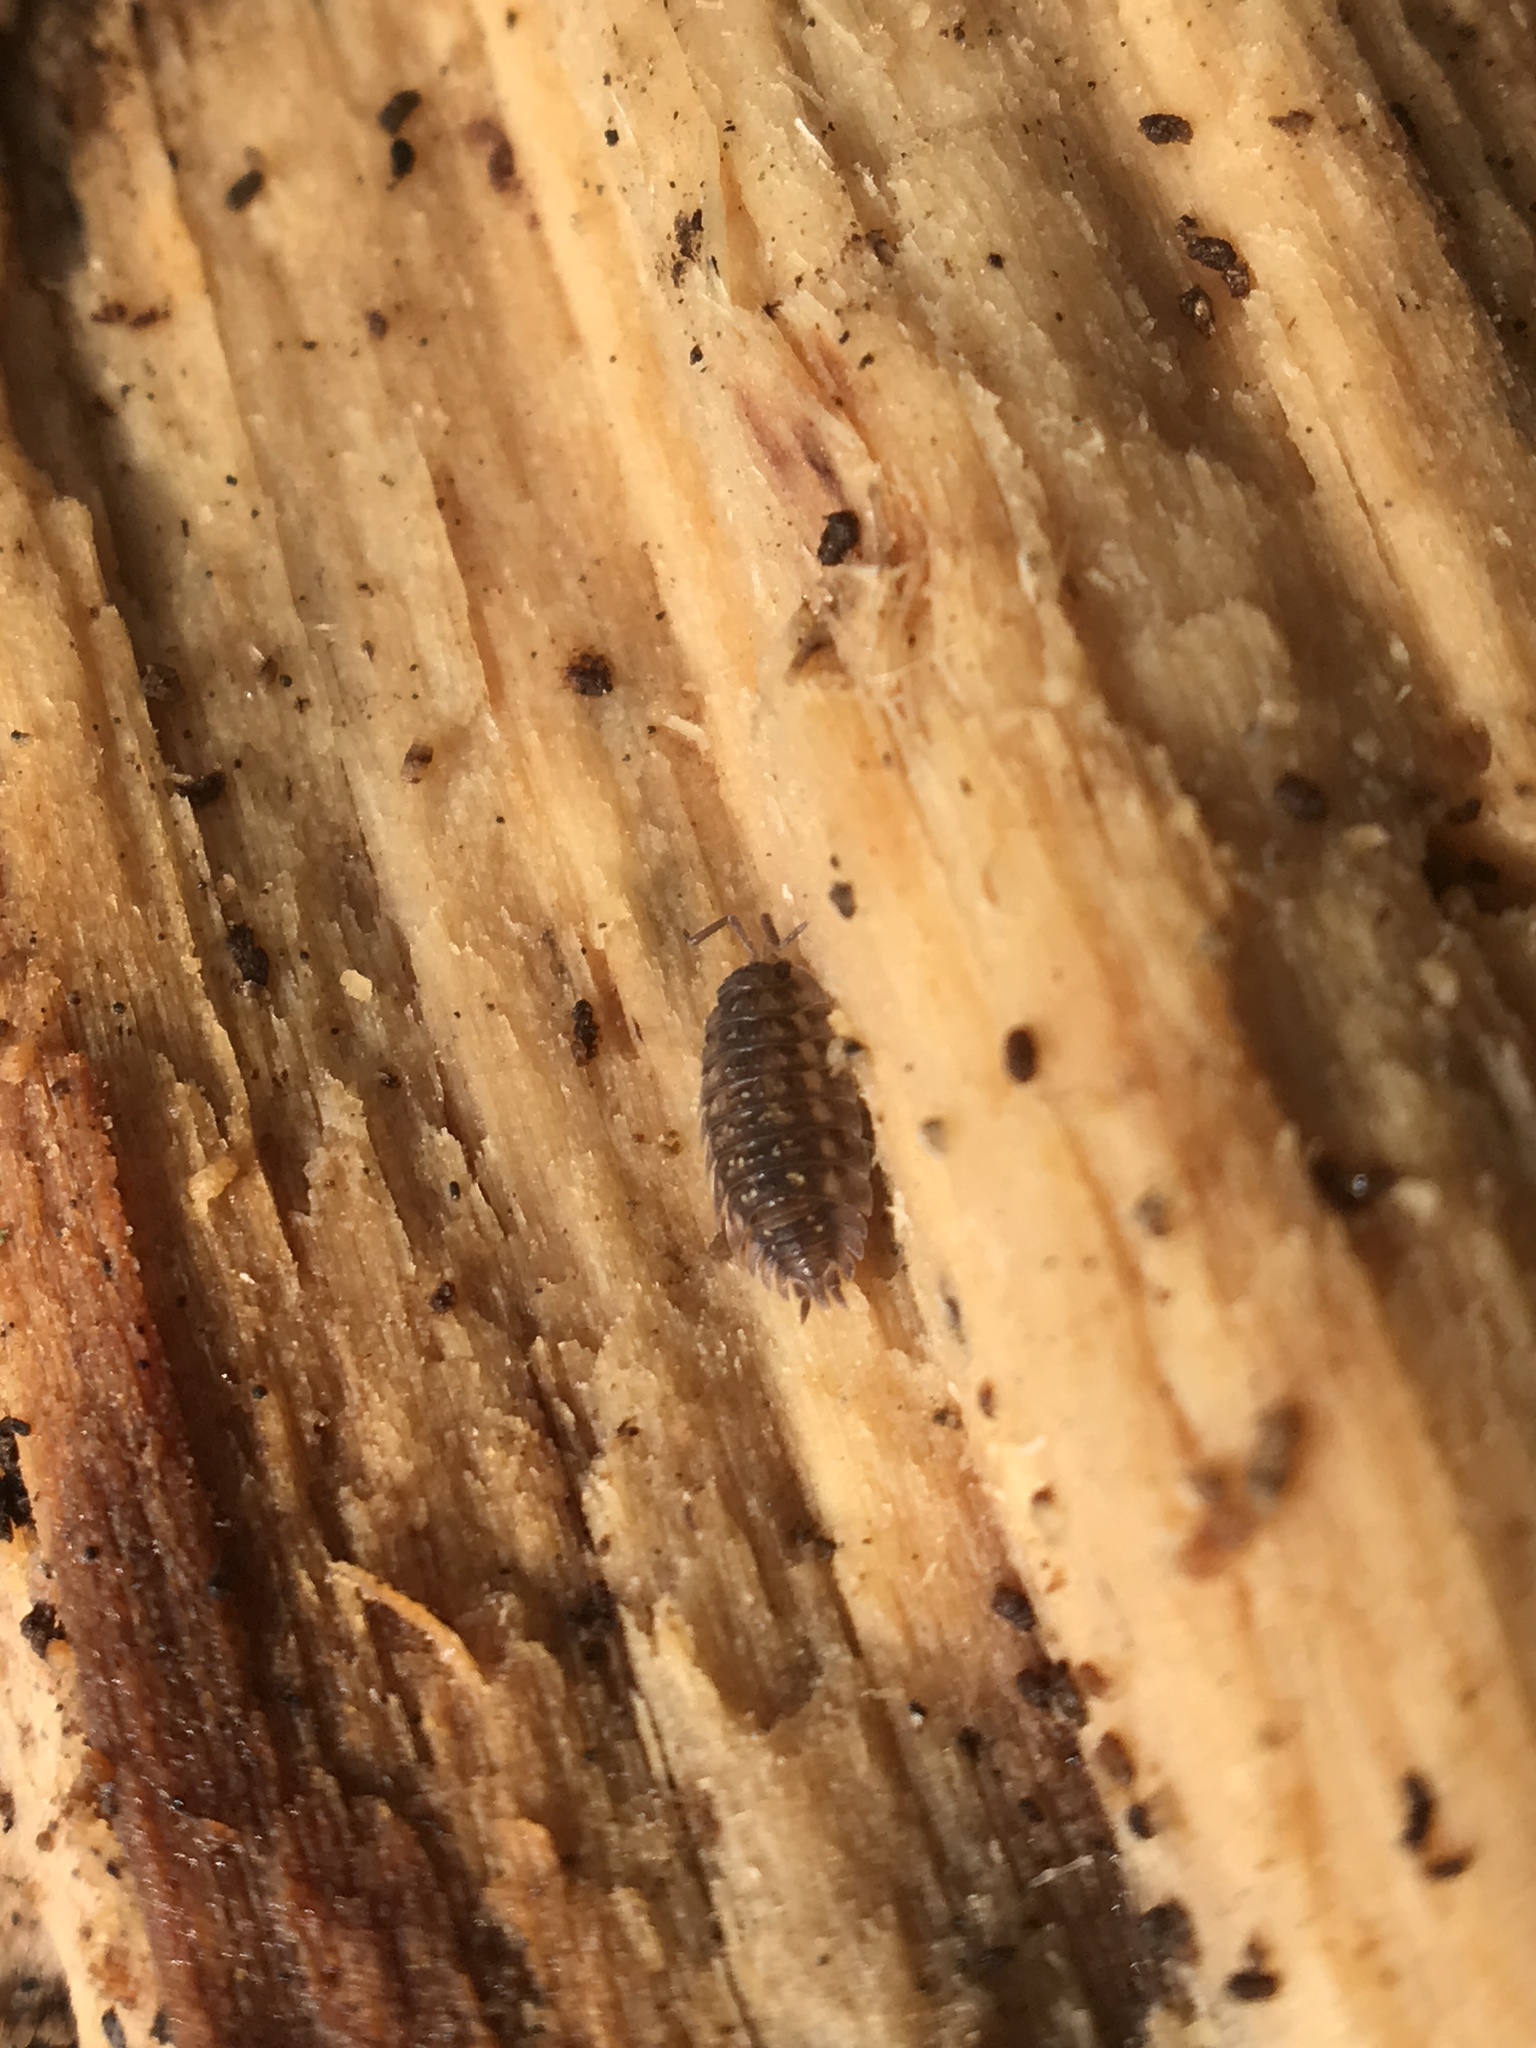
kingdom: Animalia
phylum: Arthropoda
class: Malacostraca
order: Isopoda
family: Oniscidae
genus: Oniscus
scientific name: Oniscus asellus
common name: Common shiny woodlouse
